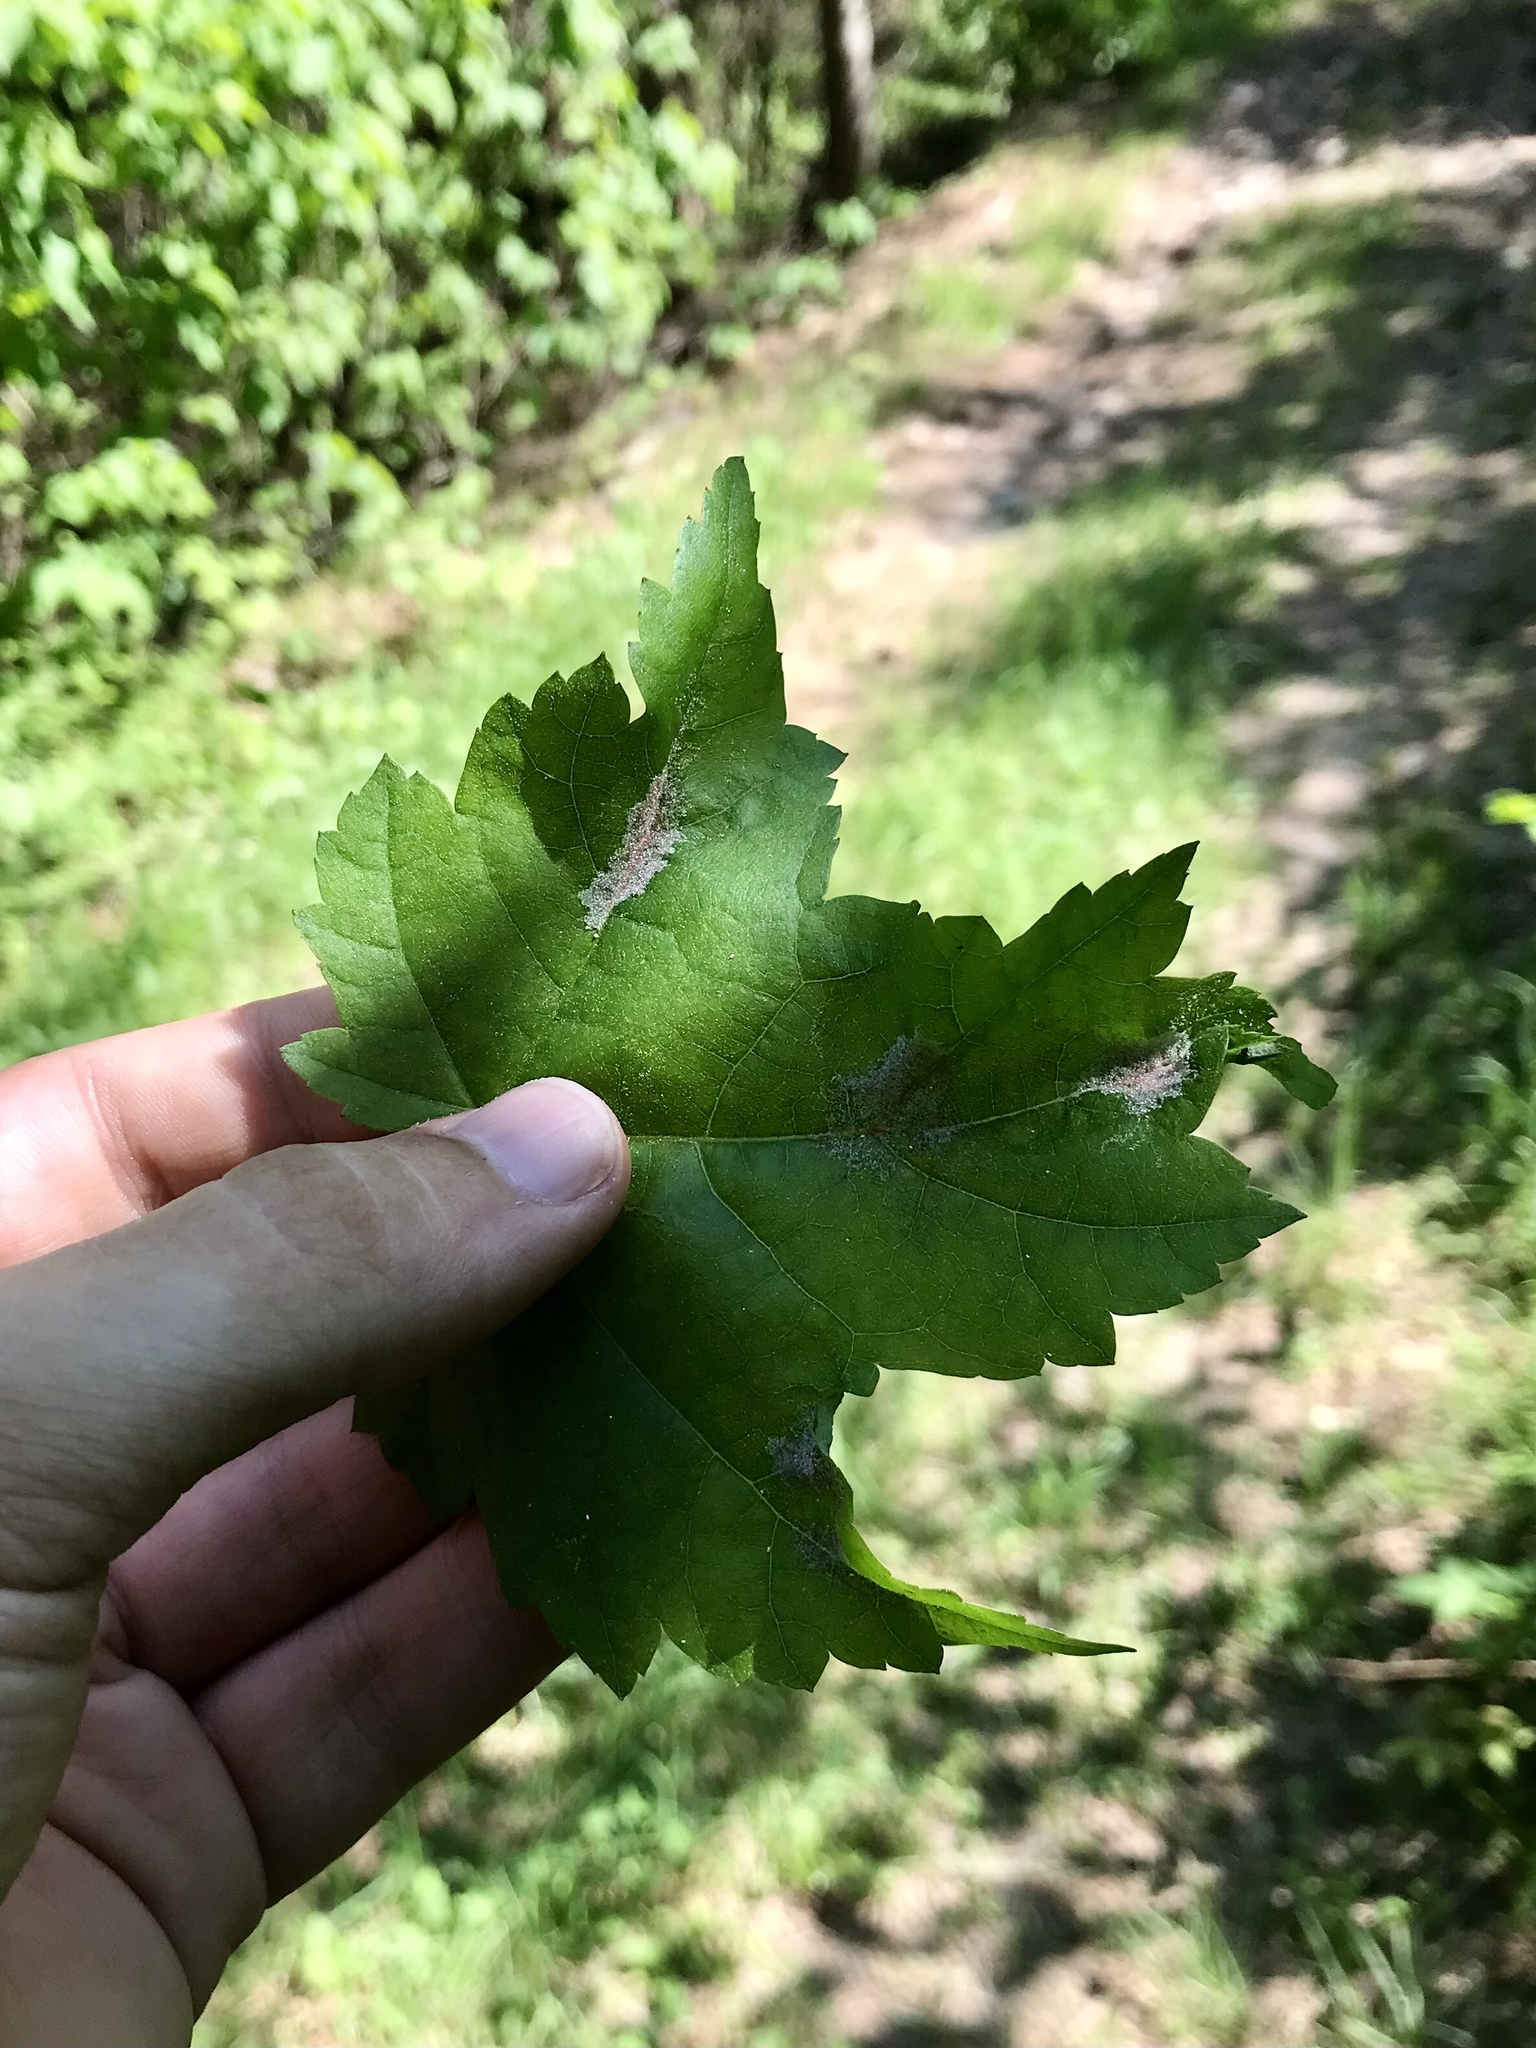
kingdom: Animalia
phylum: Arthropoda
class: Arachnida
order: Trombidiformes
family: Eriophyidae
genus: Aculus
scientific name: Aculus
